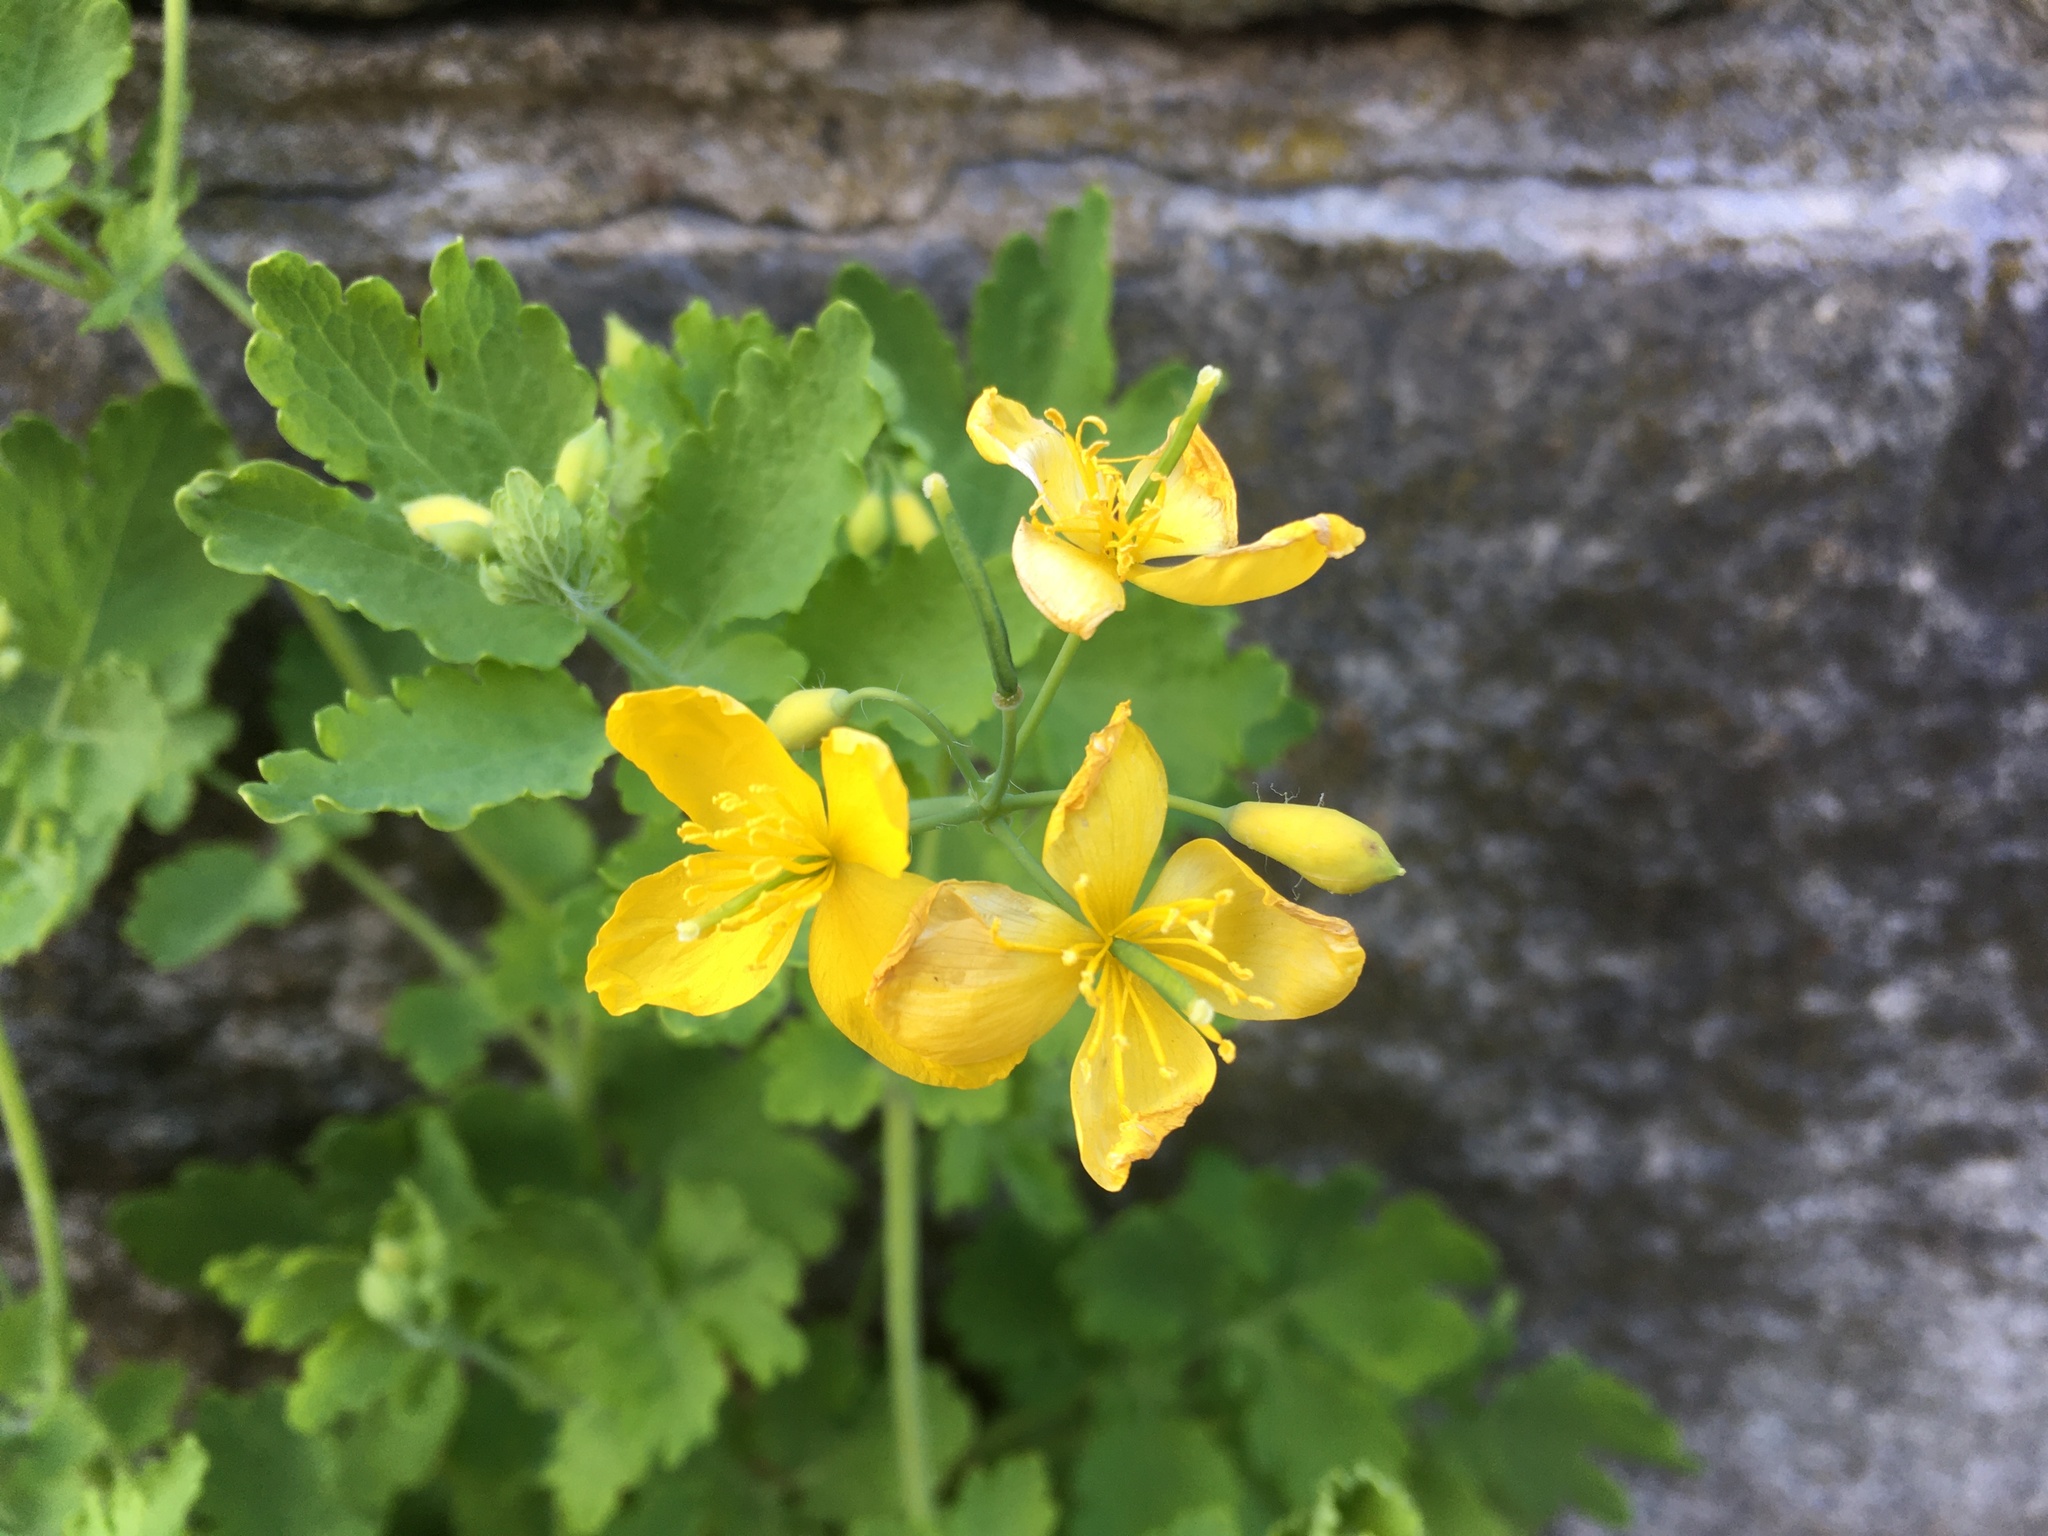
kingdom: Plantae
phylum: Tracheophyta
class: Magnoliopsida
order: Ranunculales
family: Papaveraceae
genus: Chelidonium
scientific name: Chelidonium majus
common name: Greater celandine
